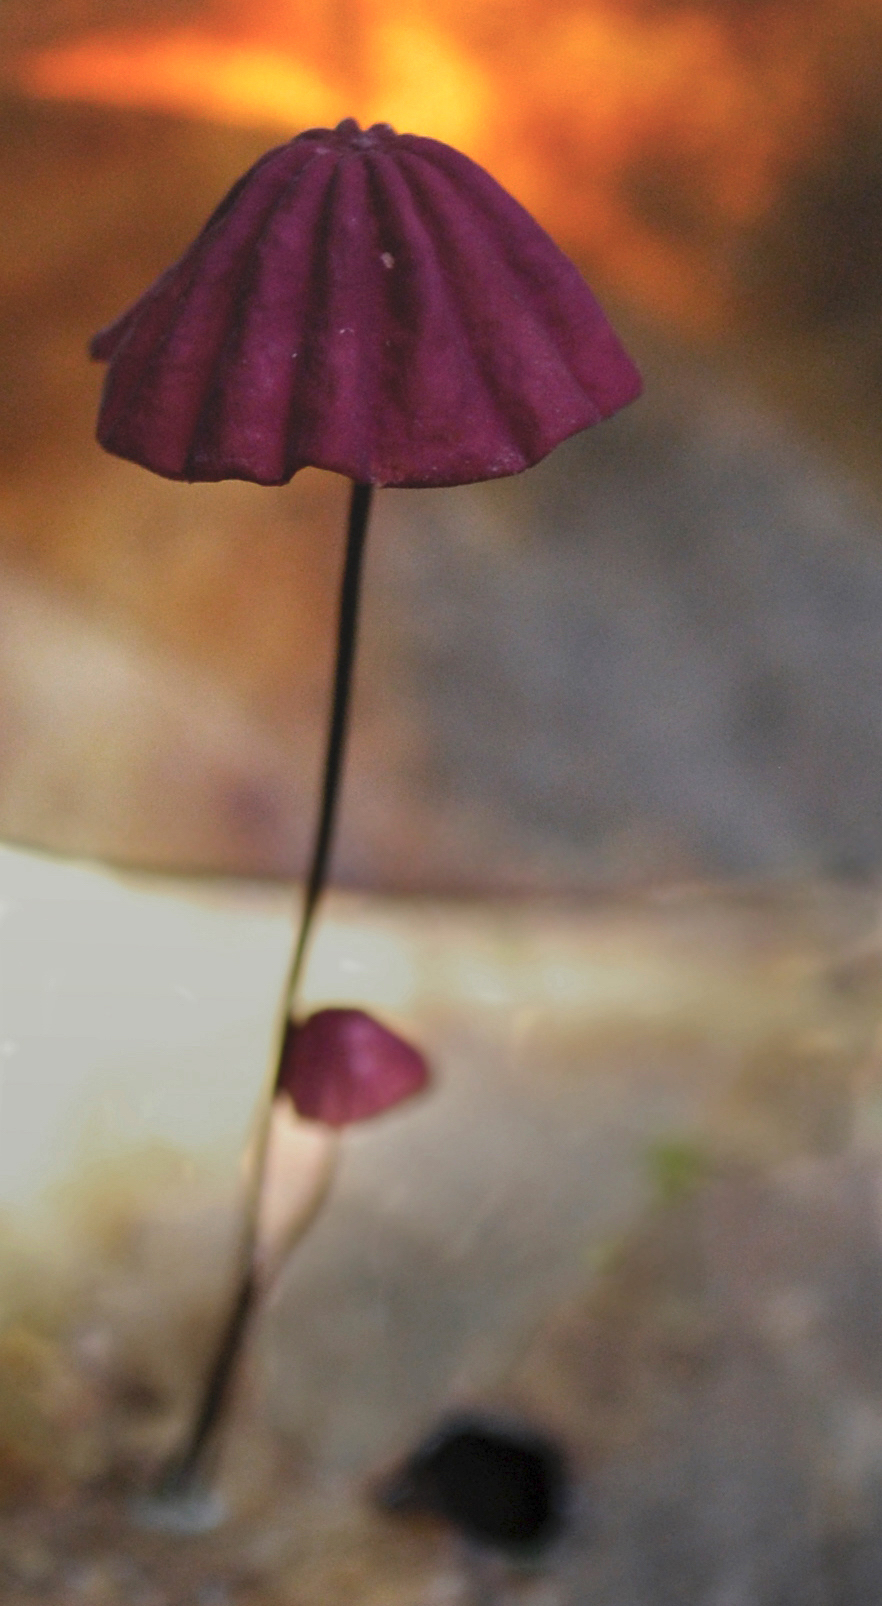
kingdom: Fungi
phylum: Basidiomycota
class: Agaricomycetes
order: Agaricales
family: Marasmiaceae
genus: Marasmius
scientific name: Marasmius haematocephalus
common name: Purple pinwheel
